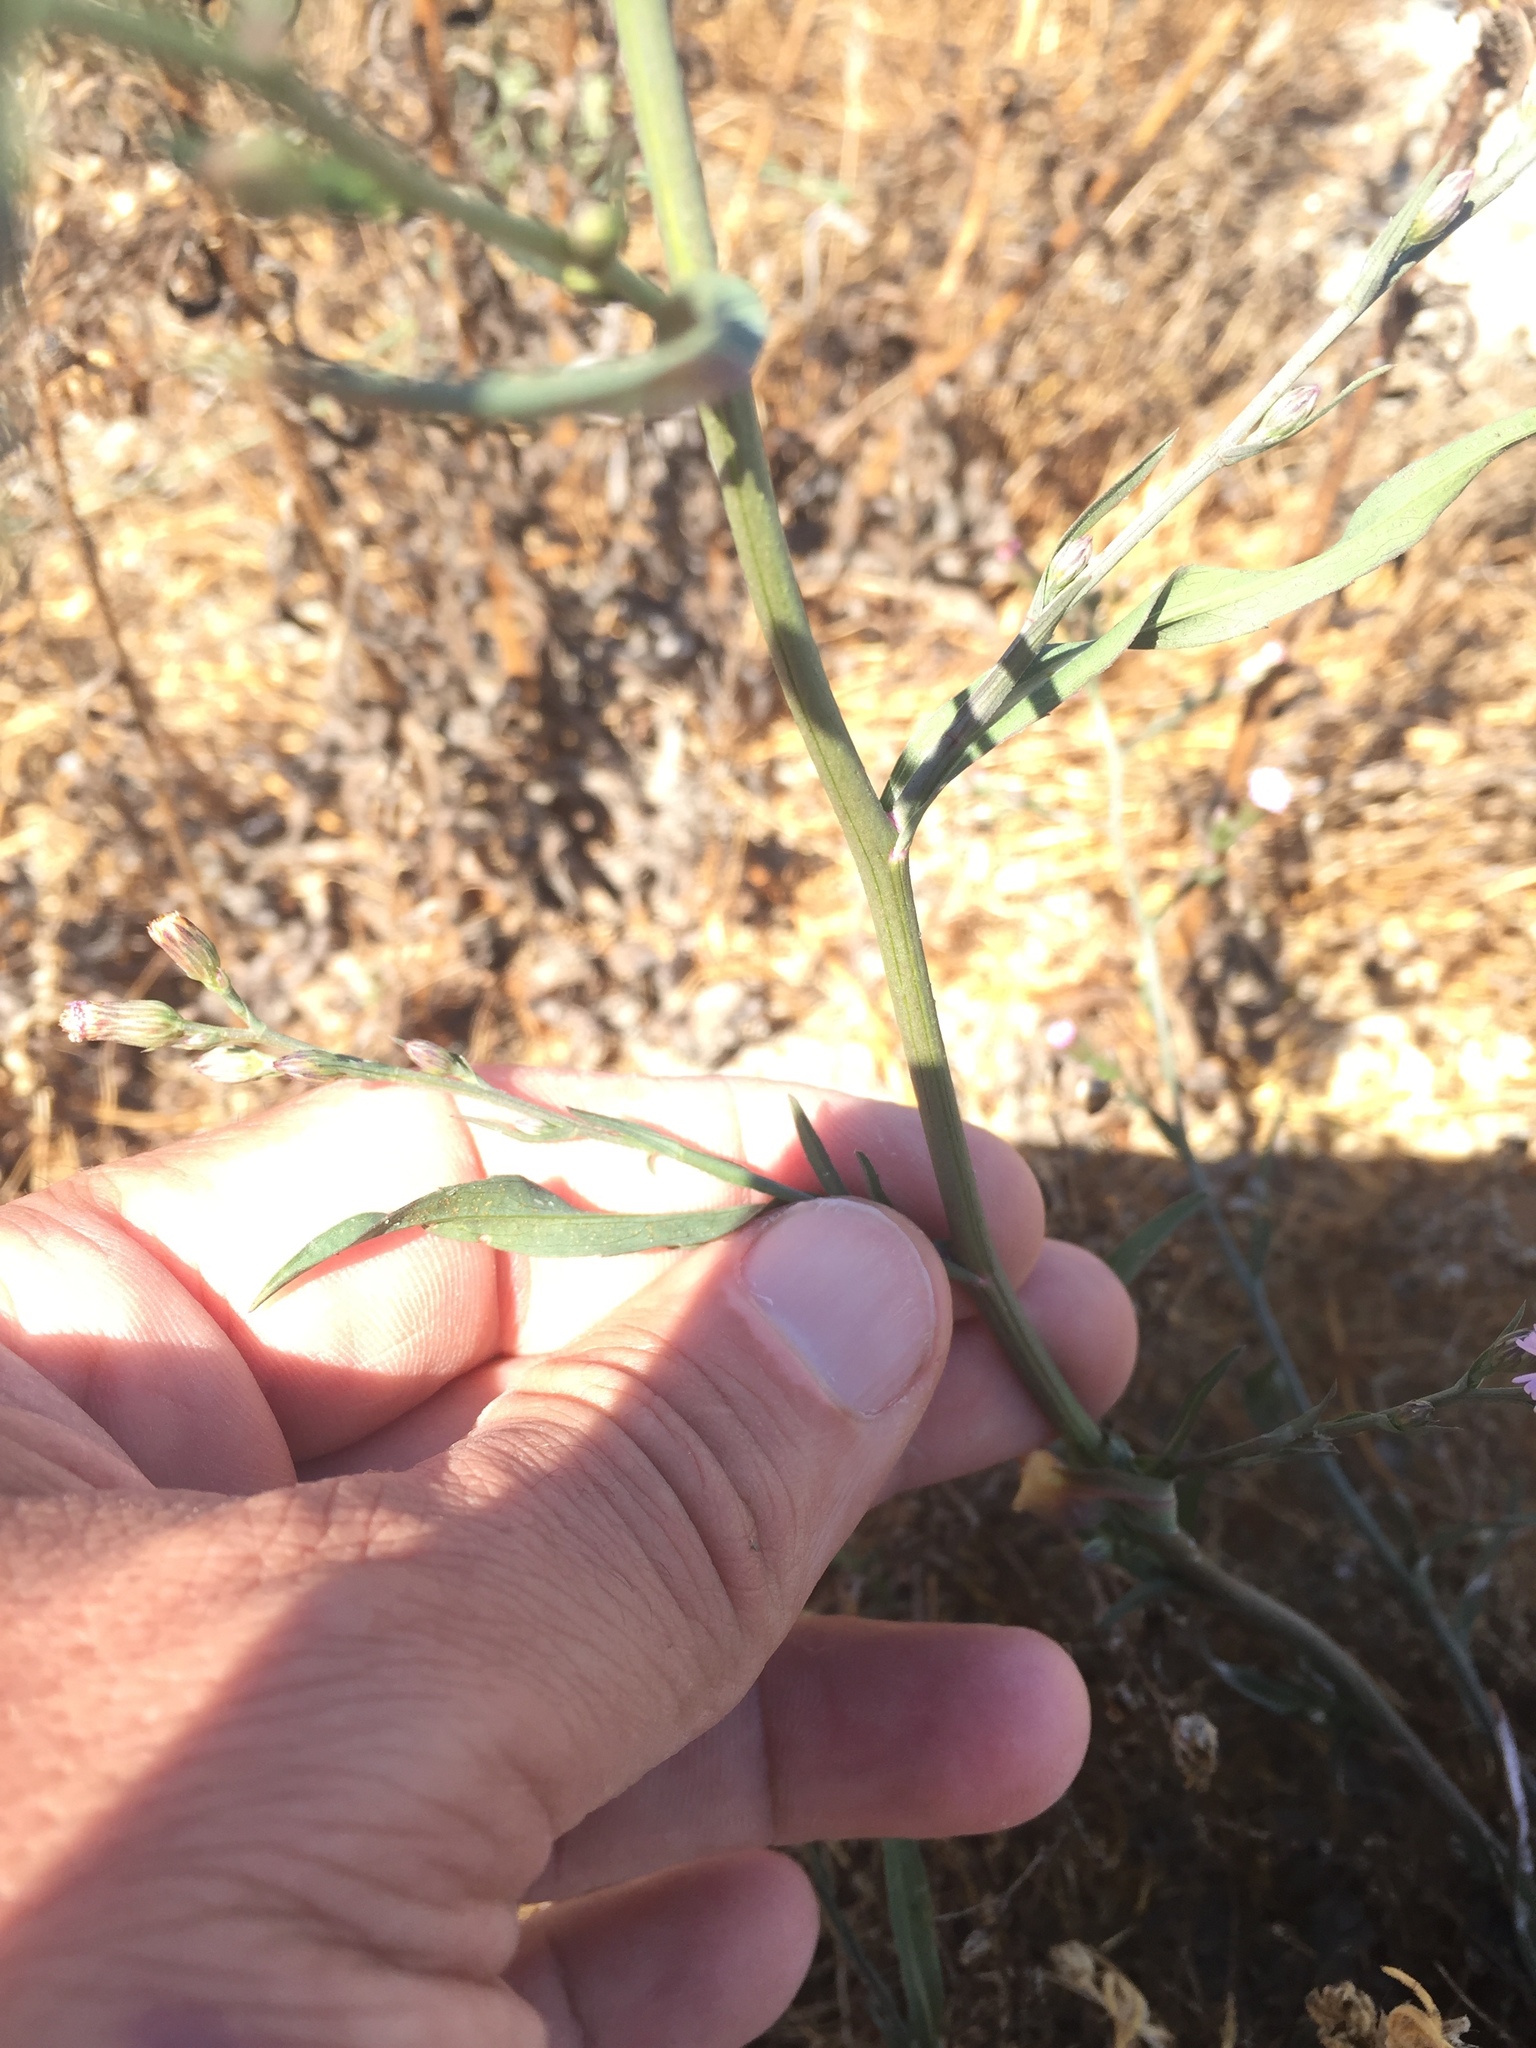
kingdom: Plantae
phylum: Tracheophyta
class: Magnoliopsida
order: Asterales
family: Asteraceae
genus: Symphyotrichum
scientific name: Symphyotrichum subulatum
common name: Annual saltmarsh aster
